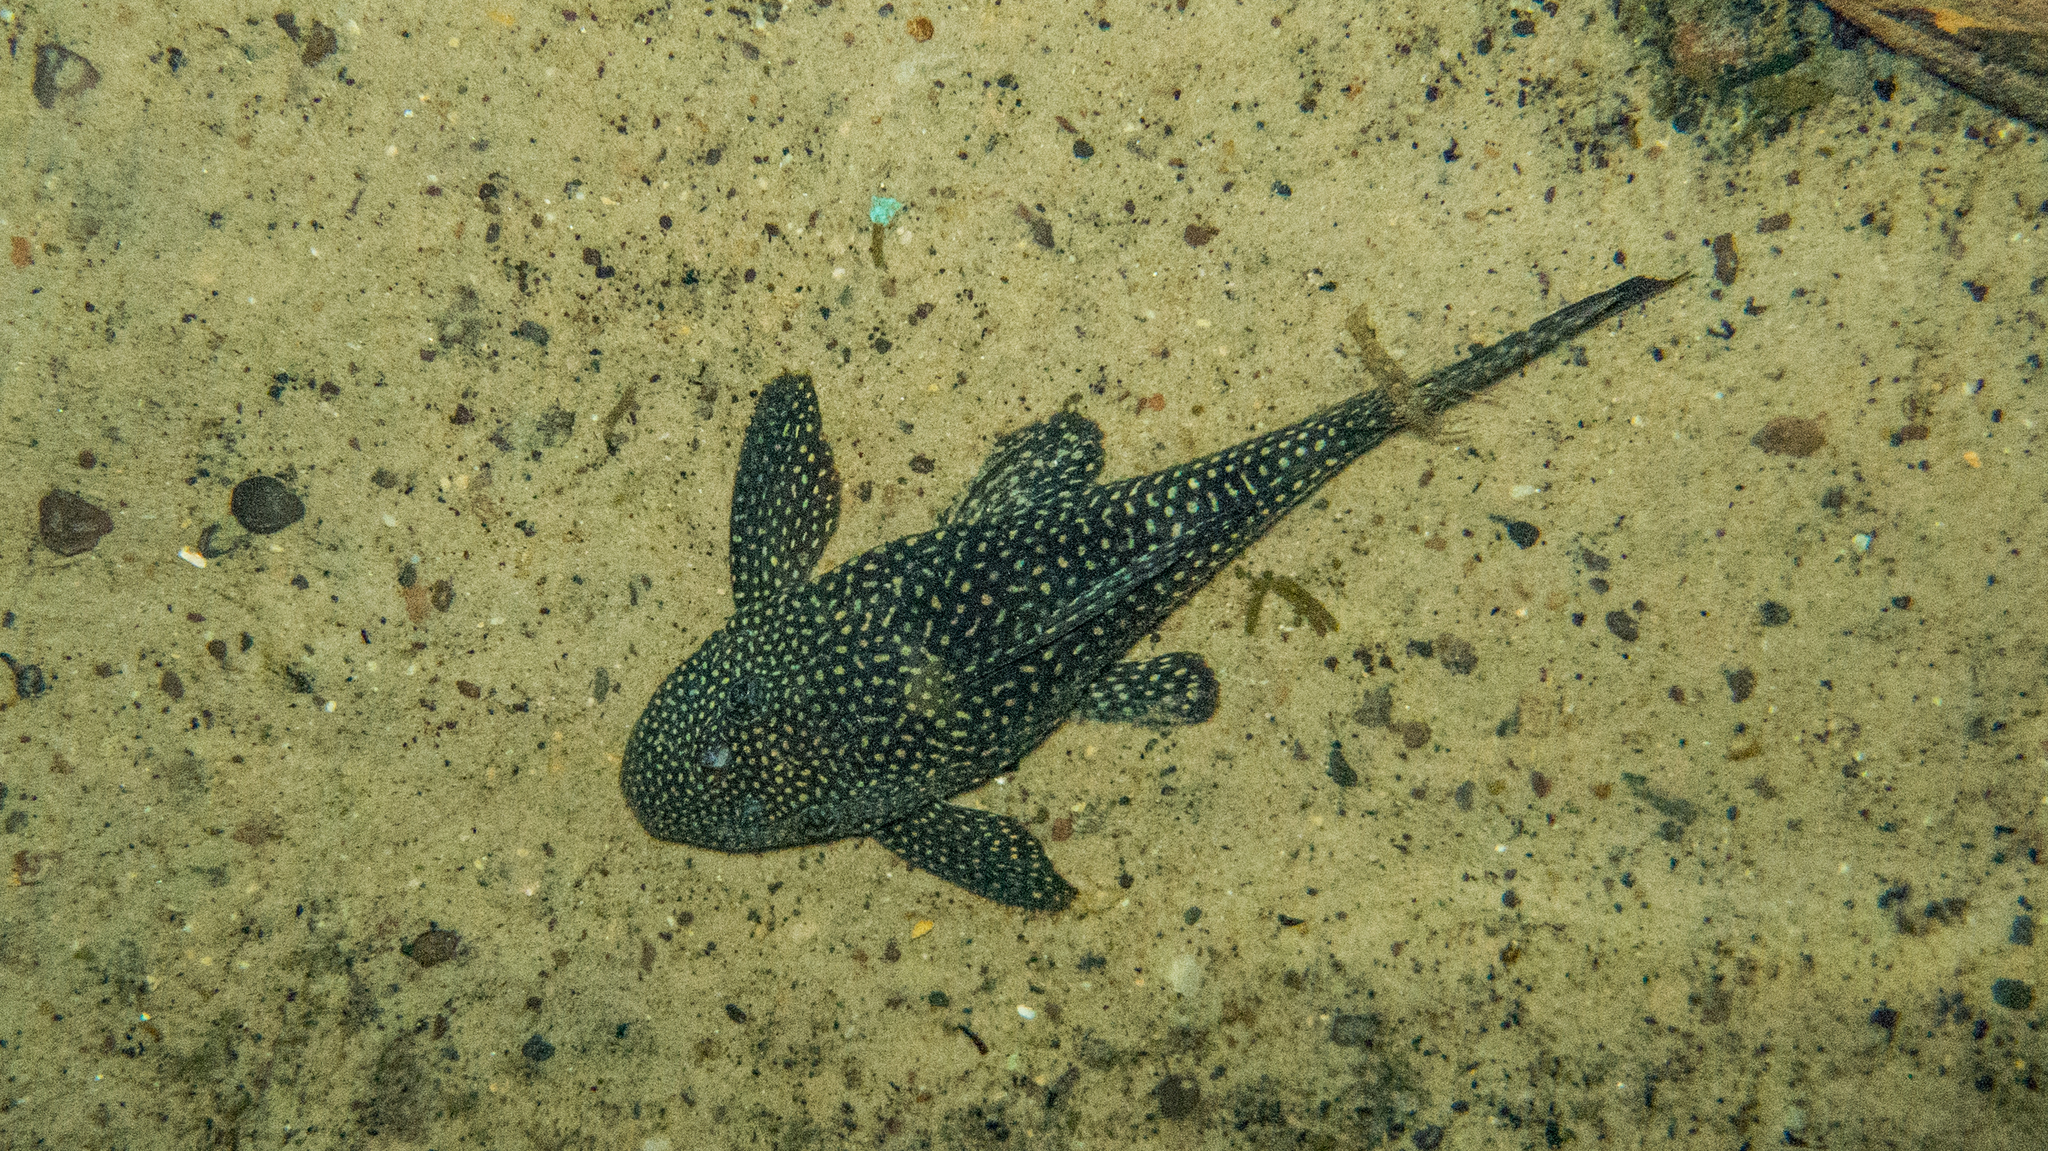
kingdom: Animalia
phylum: Chordata
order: Siluriformes
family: Loricariidae
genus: Hypostomus
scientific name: Hypostomus delimai
